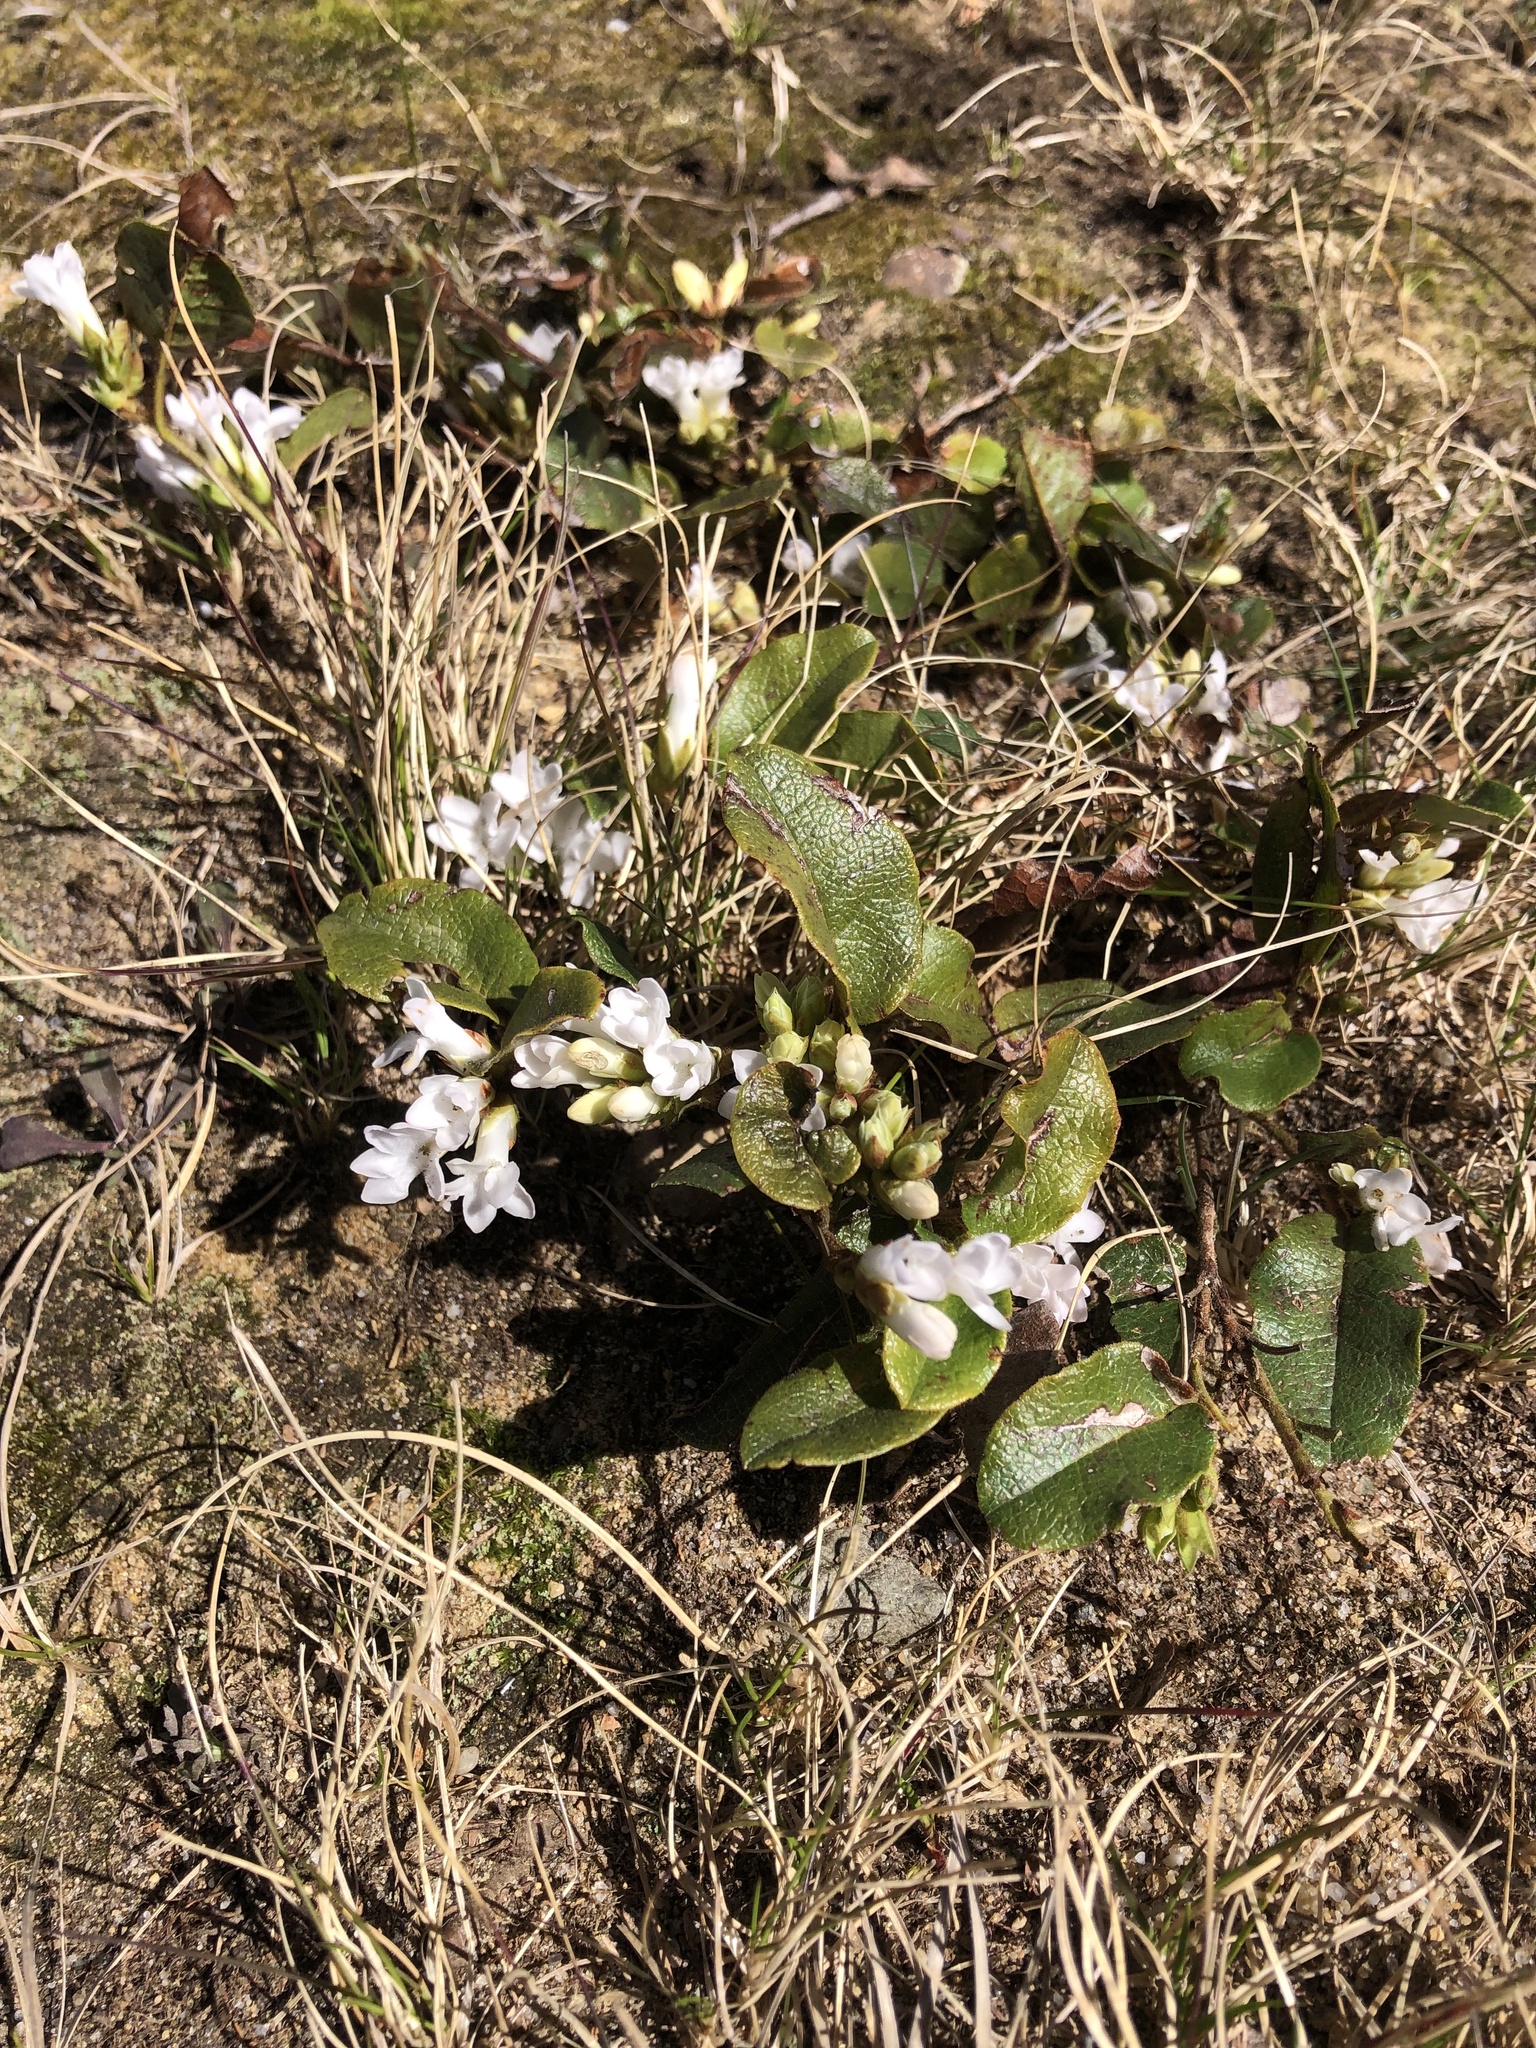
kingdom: Plantae
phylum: Tracheophyta
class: Magnoliopsida
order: Ericales
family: Ericaceae
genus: Epigaea
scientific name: Epigaea repens
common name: Gravelroot
